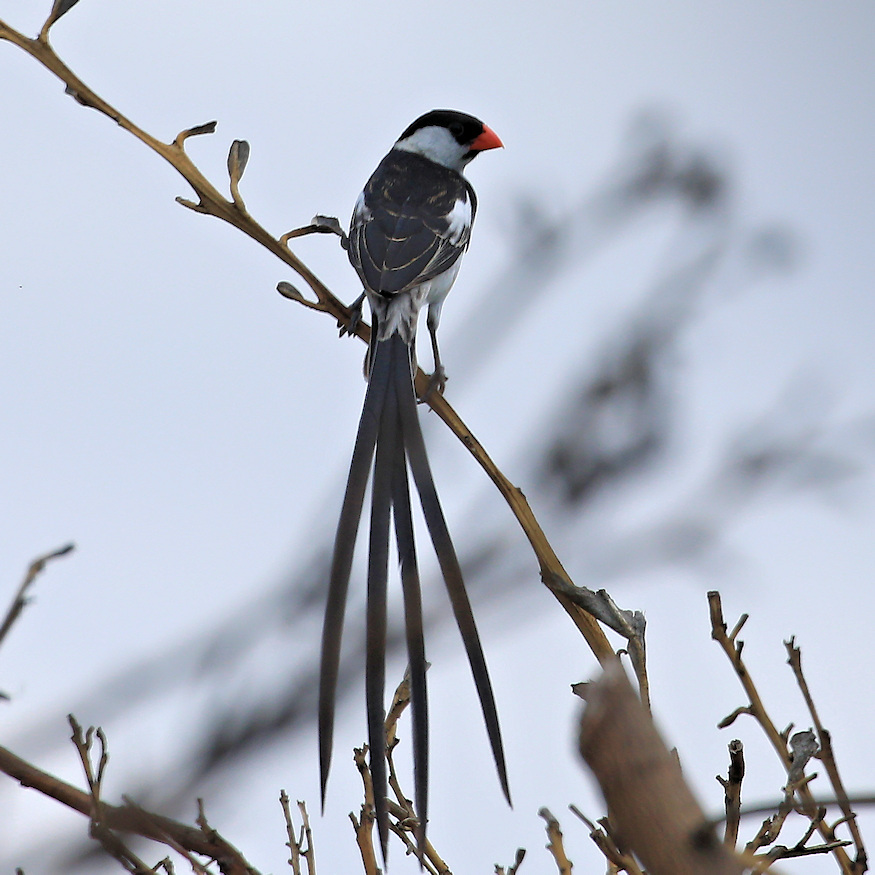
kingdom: Animalia
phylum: Chordata
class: Aves
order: Passeriformes
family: Viduidae
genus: Vidua
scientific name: Vidua macroura
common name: Pin-tailed whydah
